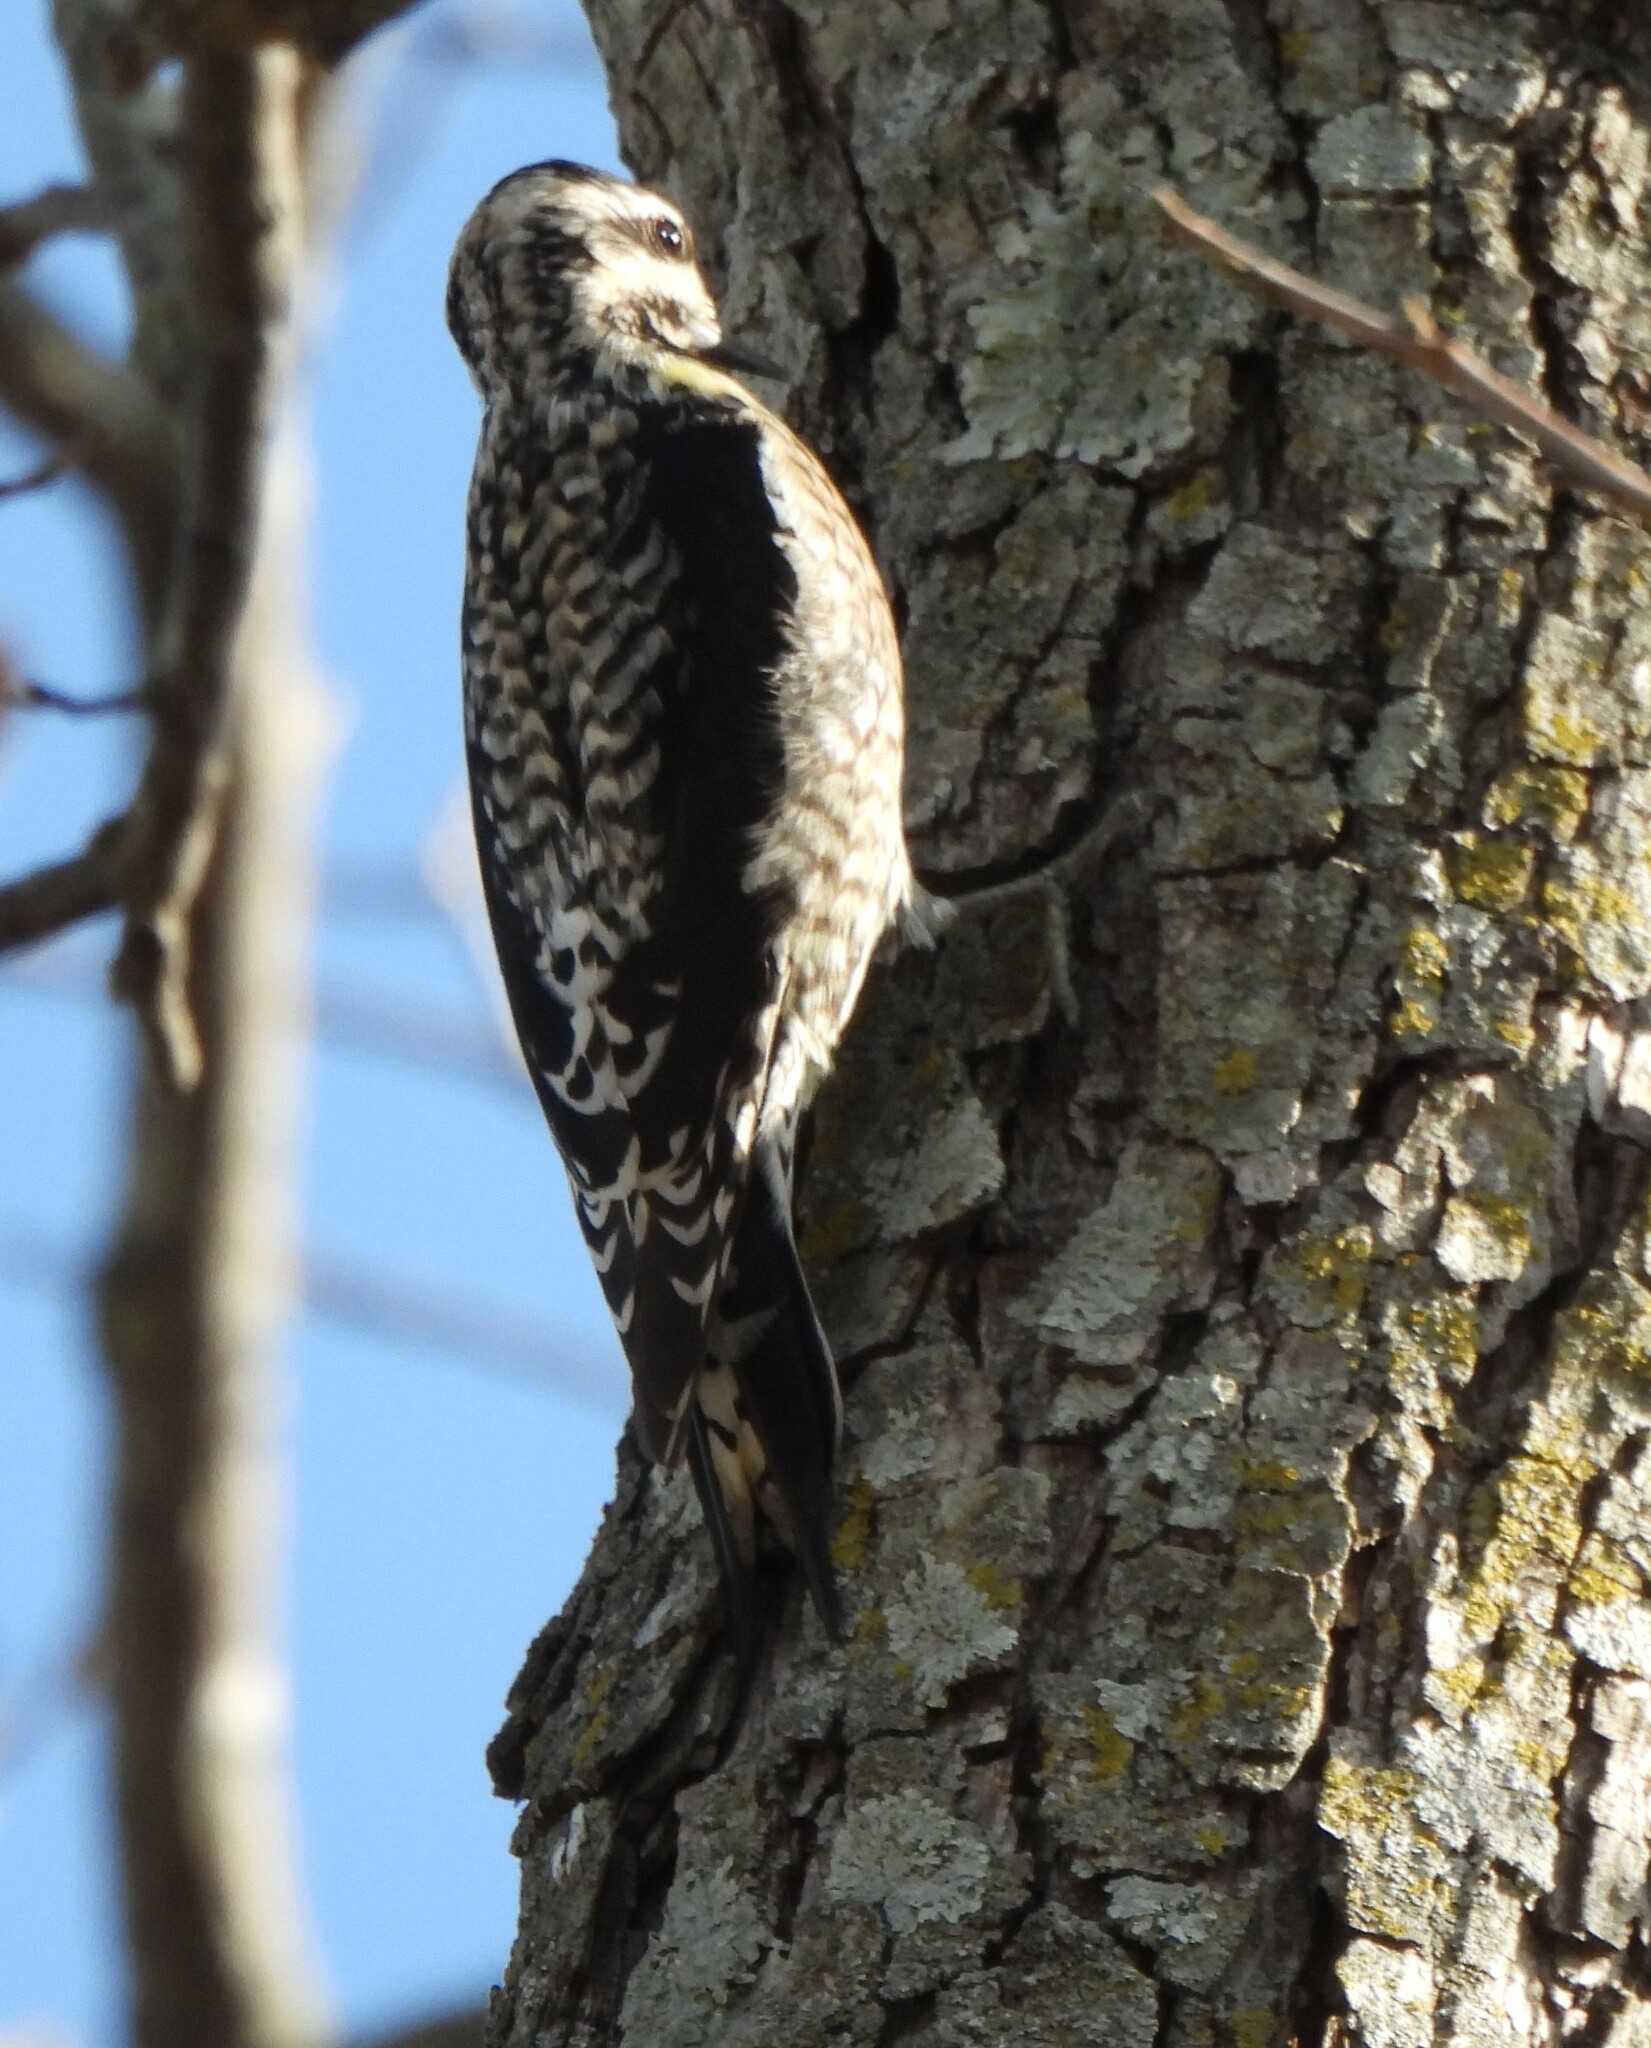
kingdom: Animalia
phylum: Chordata
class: Aves
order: Piciformes
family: Picidae
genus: Sphyrapicus
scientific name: Sphyrapicus varius
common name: Yellow-bellied sapsucker
